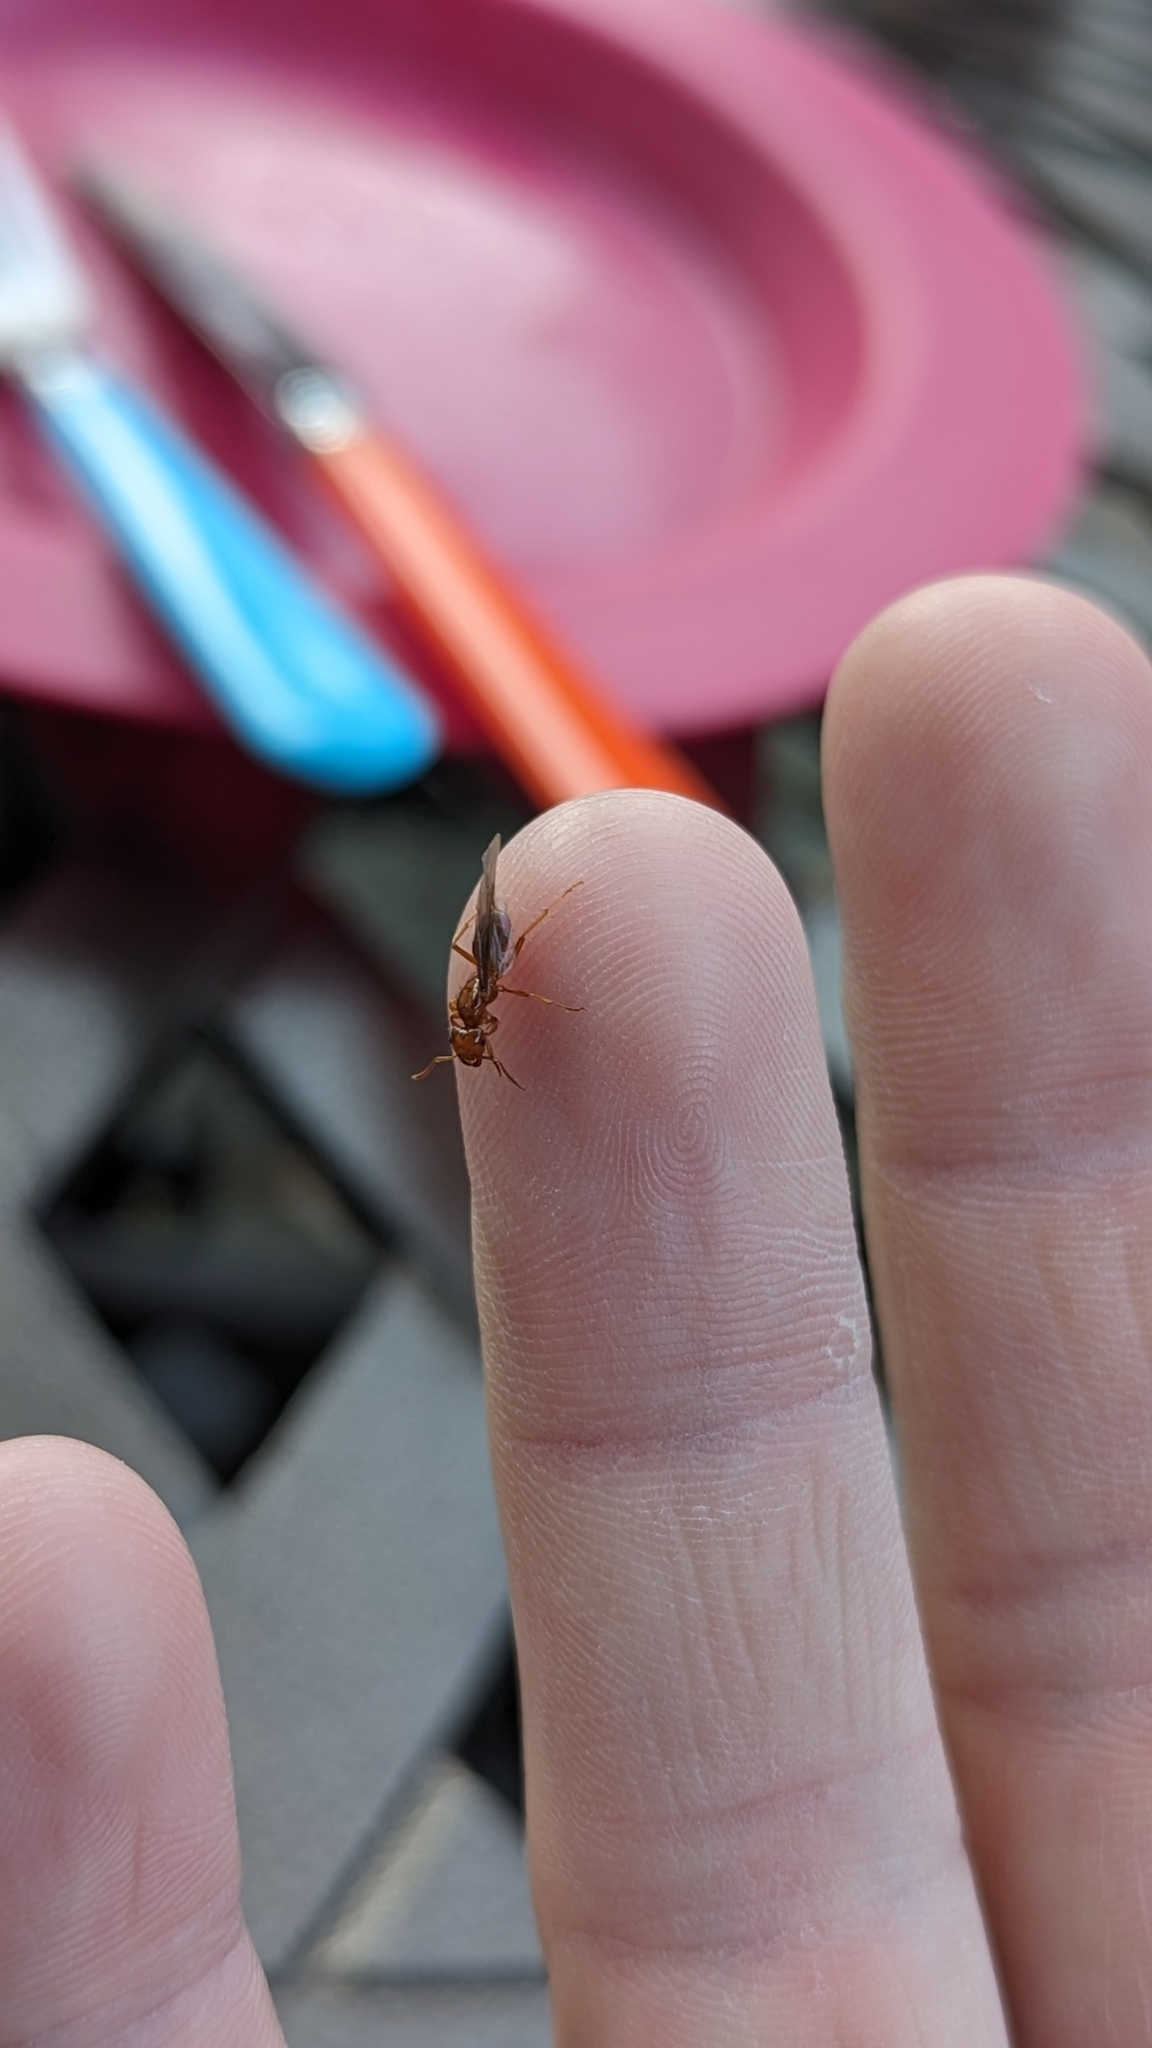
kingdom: Animalia
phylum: Arthropoda
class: Insecta
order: Hymenoptera
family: Formicidae
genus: Acanthomyops
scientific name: Acanthomyops interjectus
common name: Larger yellow ant
